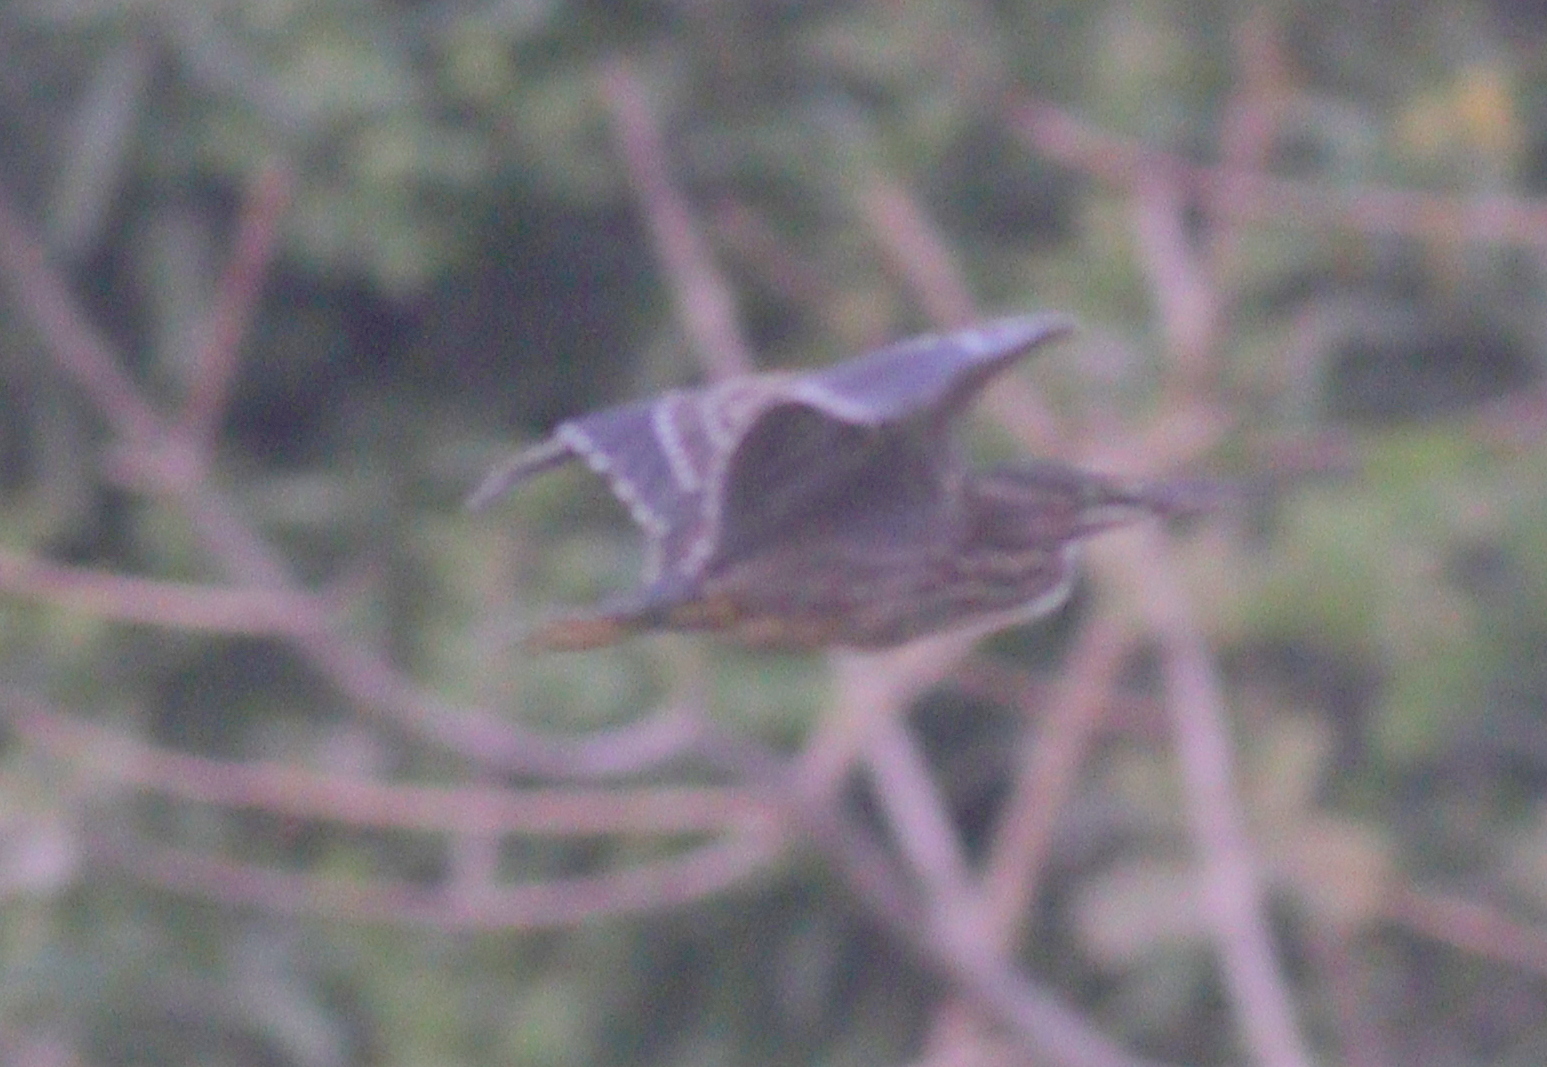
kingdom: Animalia
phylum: Chordata
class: Aves
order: Pelecaniformes
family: Ardeidae
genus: Butorides
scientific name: Butorides striata
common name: Striated heron
